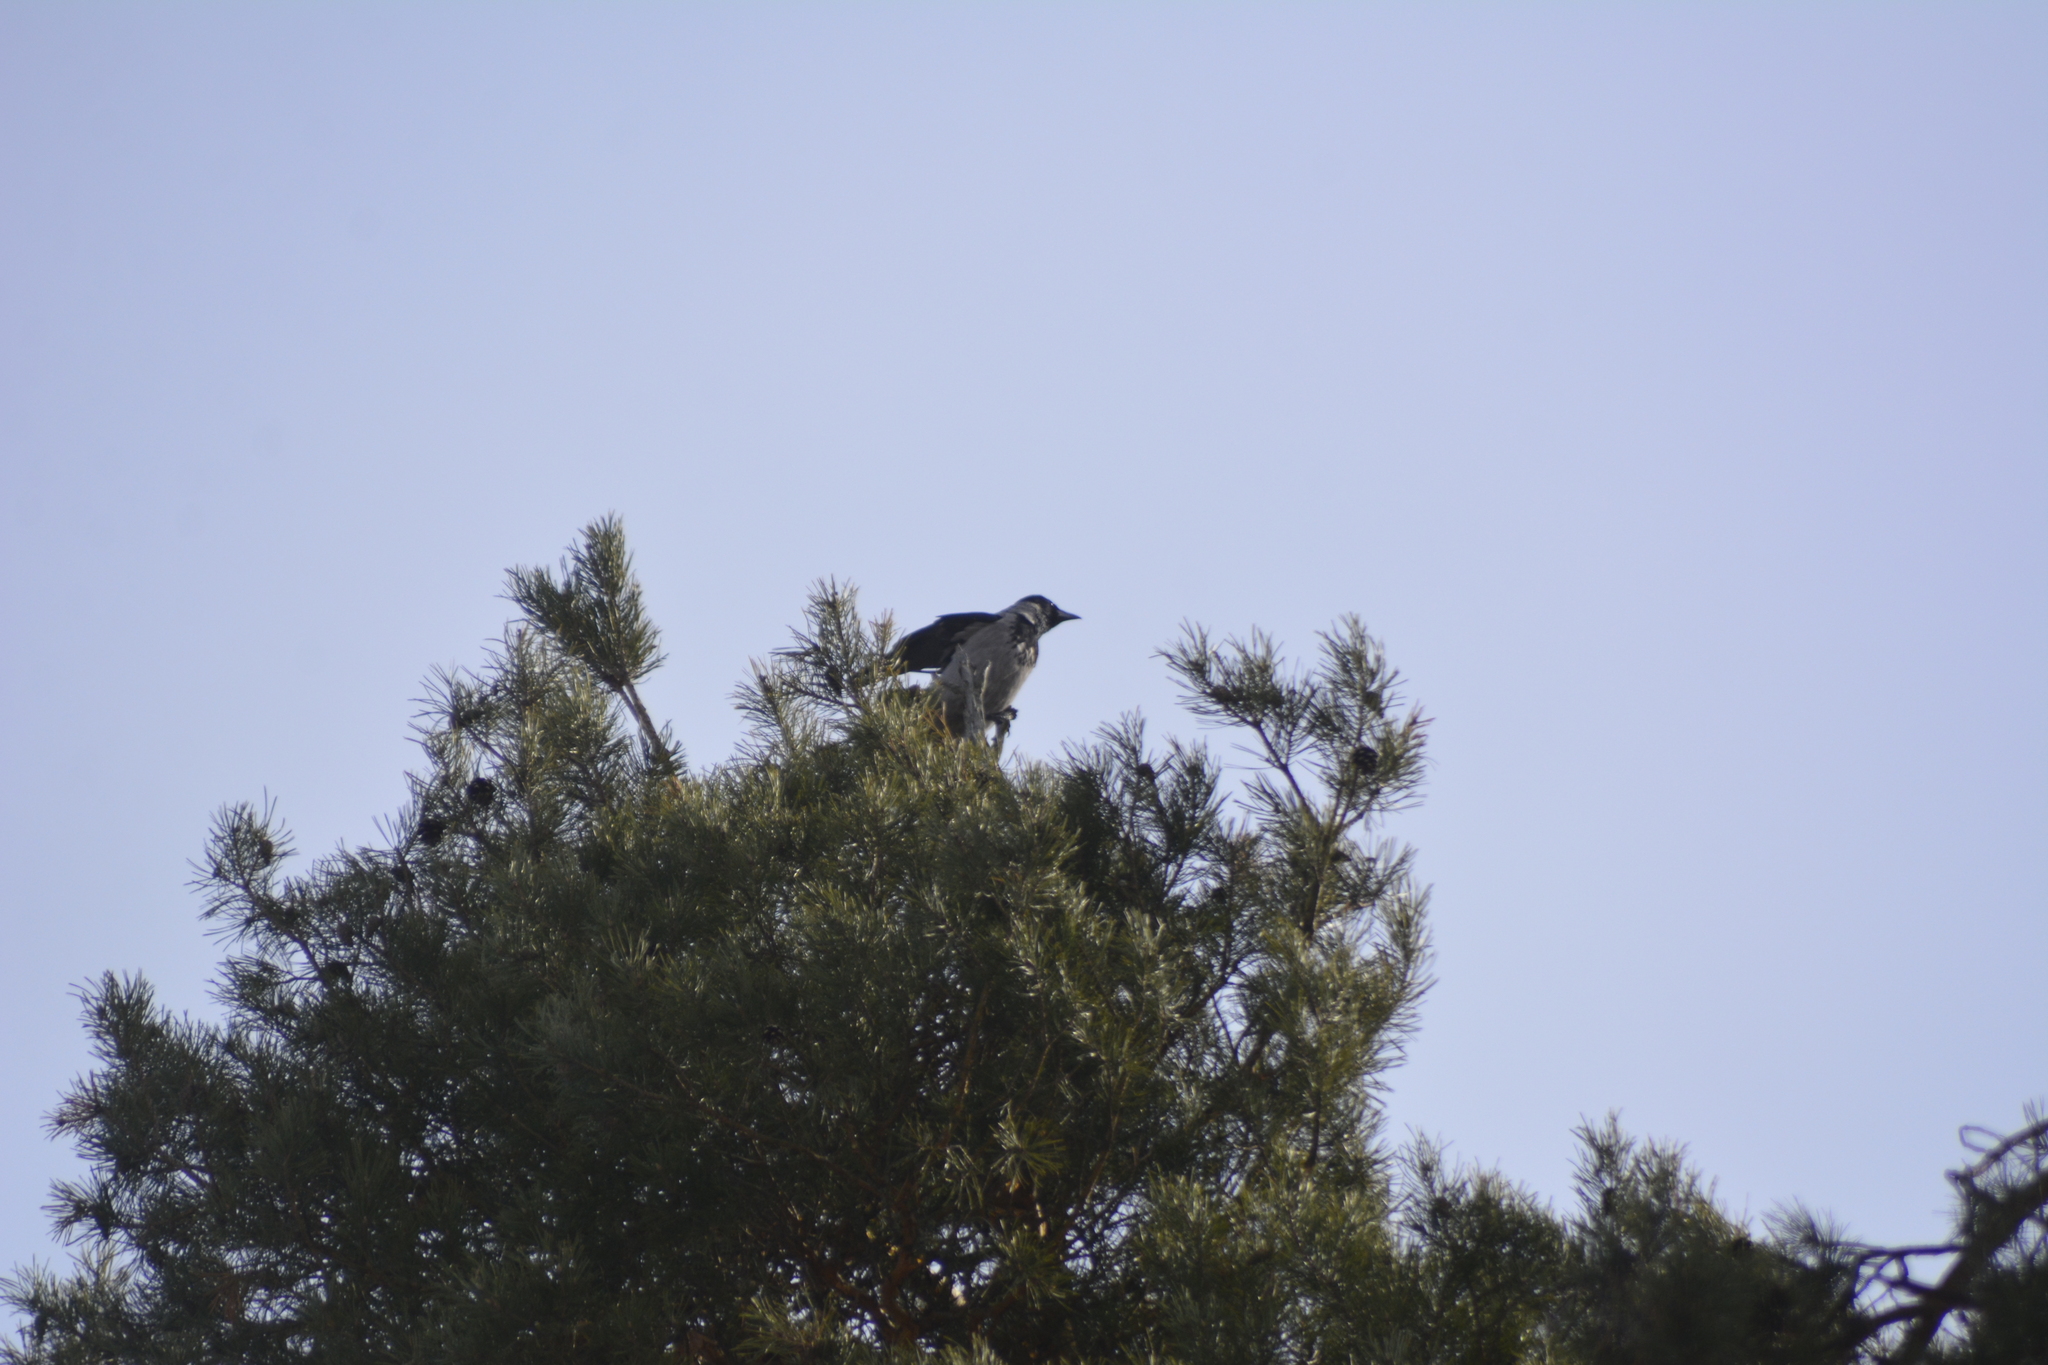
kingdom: Animalia
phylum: Chordata
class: Aves
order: Passeriformes
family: Corvidae
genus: Corvus
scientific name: Corvus cornix
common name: Hooded crow
